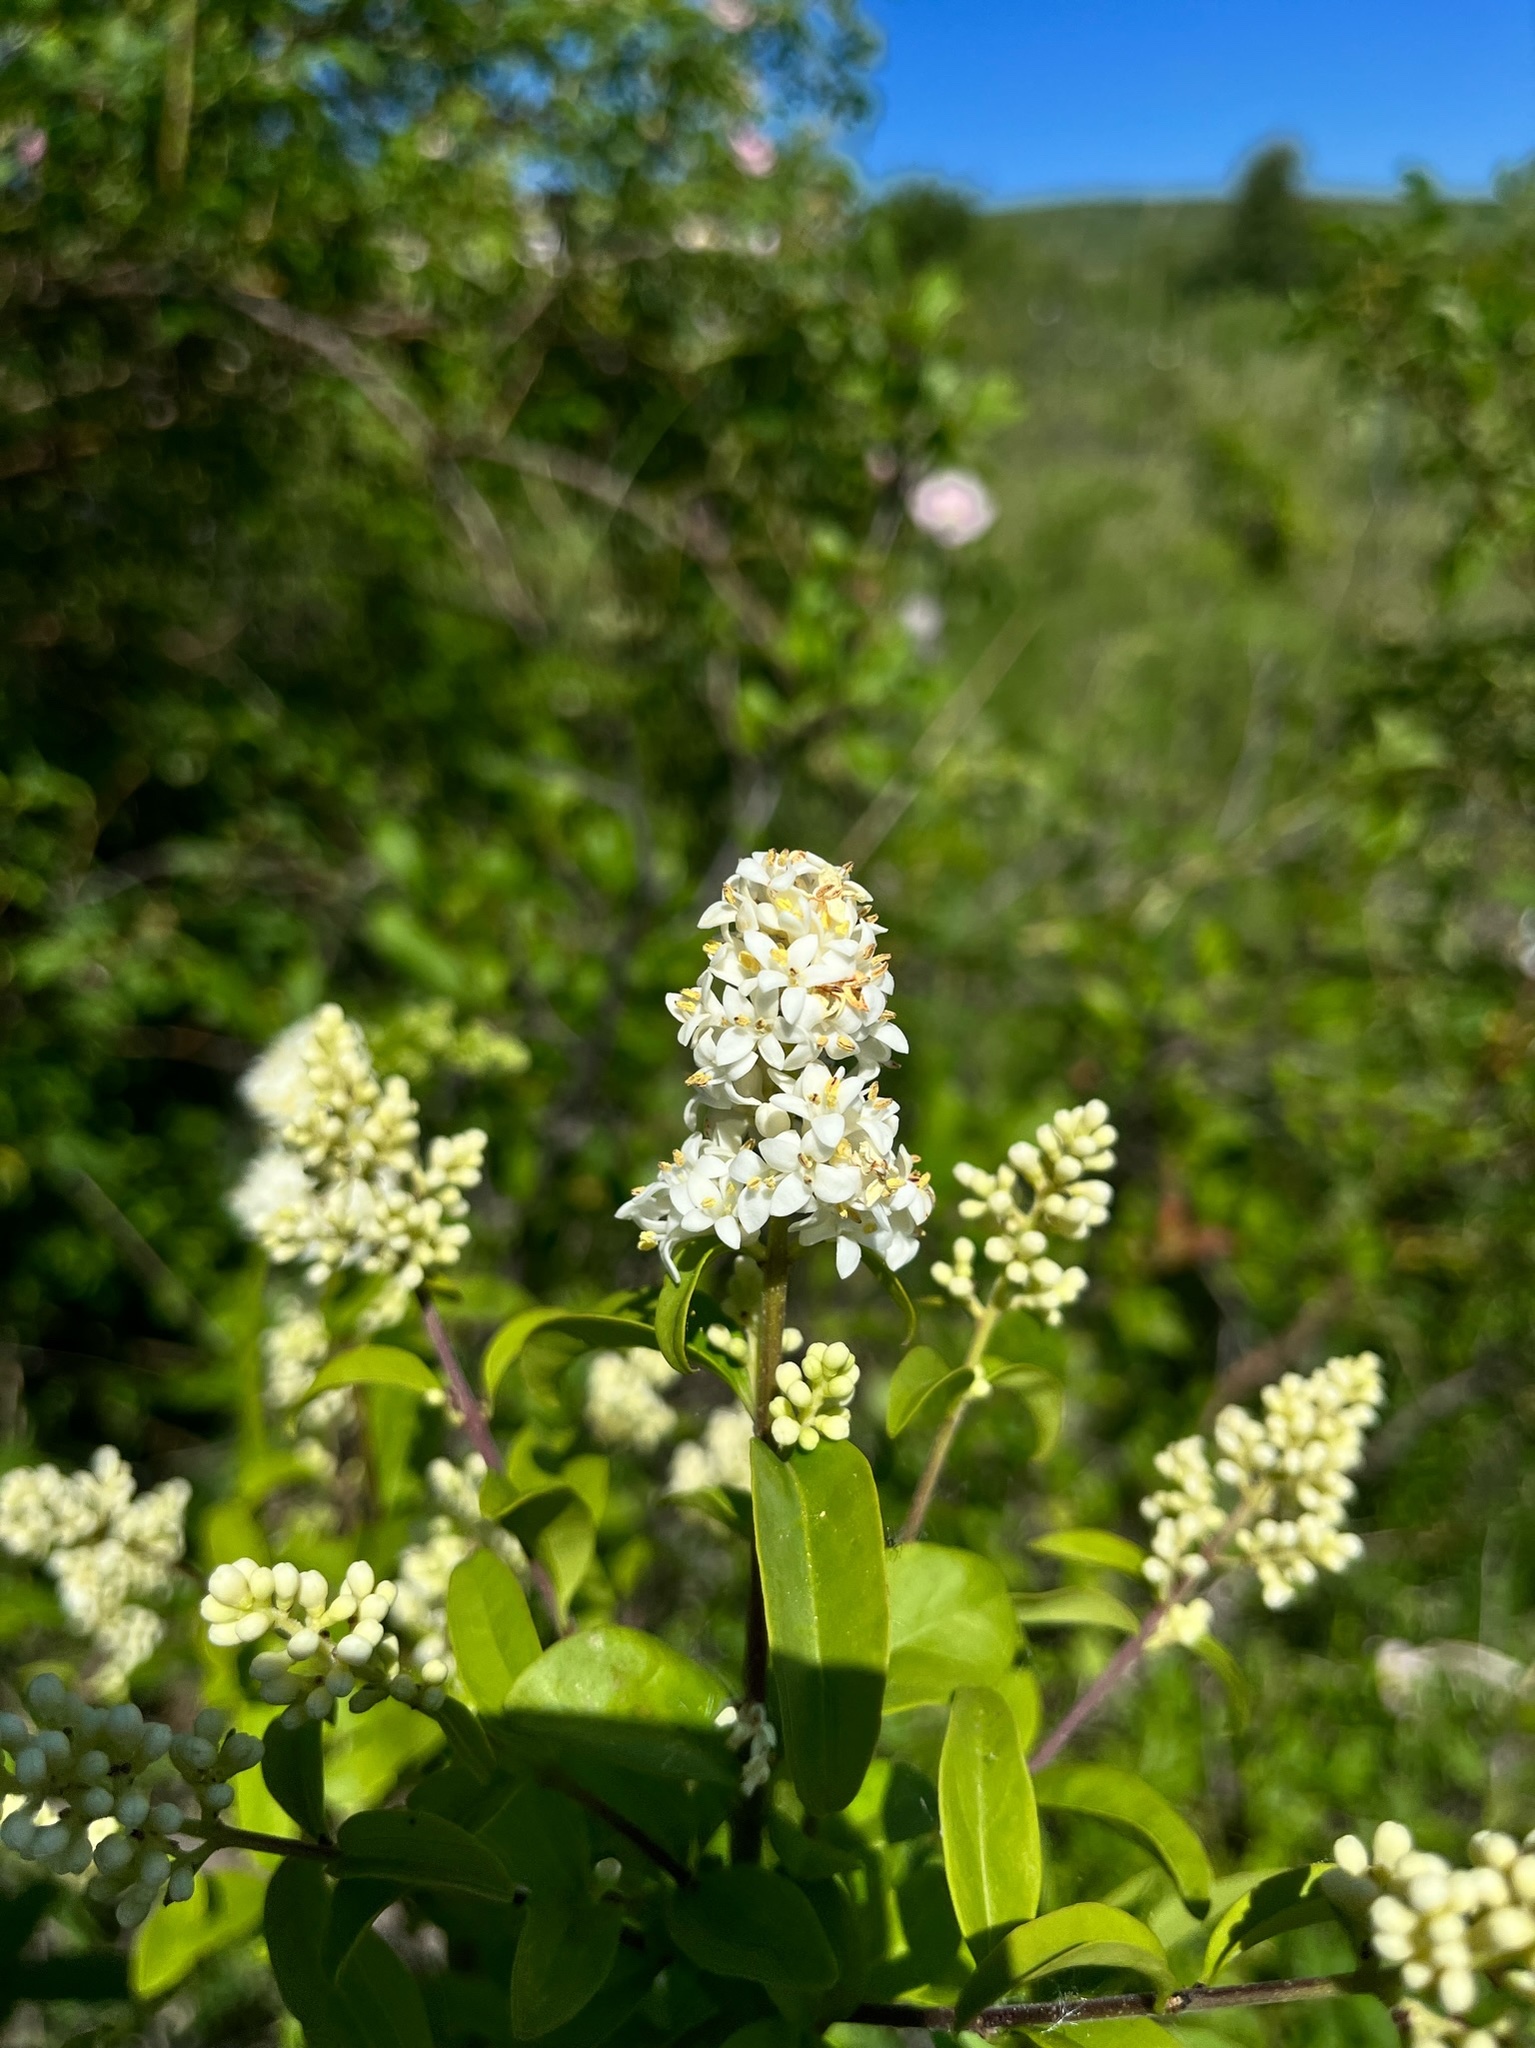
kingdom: Plantae
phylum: Tracheophyta
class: Magnoliopsida
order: Lamiales
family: Oleaceae
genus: Ligustrum
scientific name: Ligustrum vulgare
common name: Wild privet
